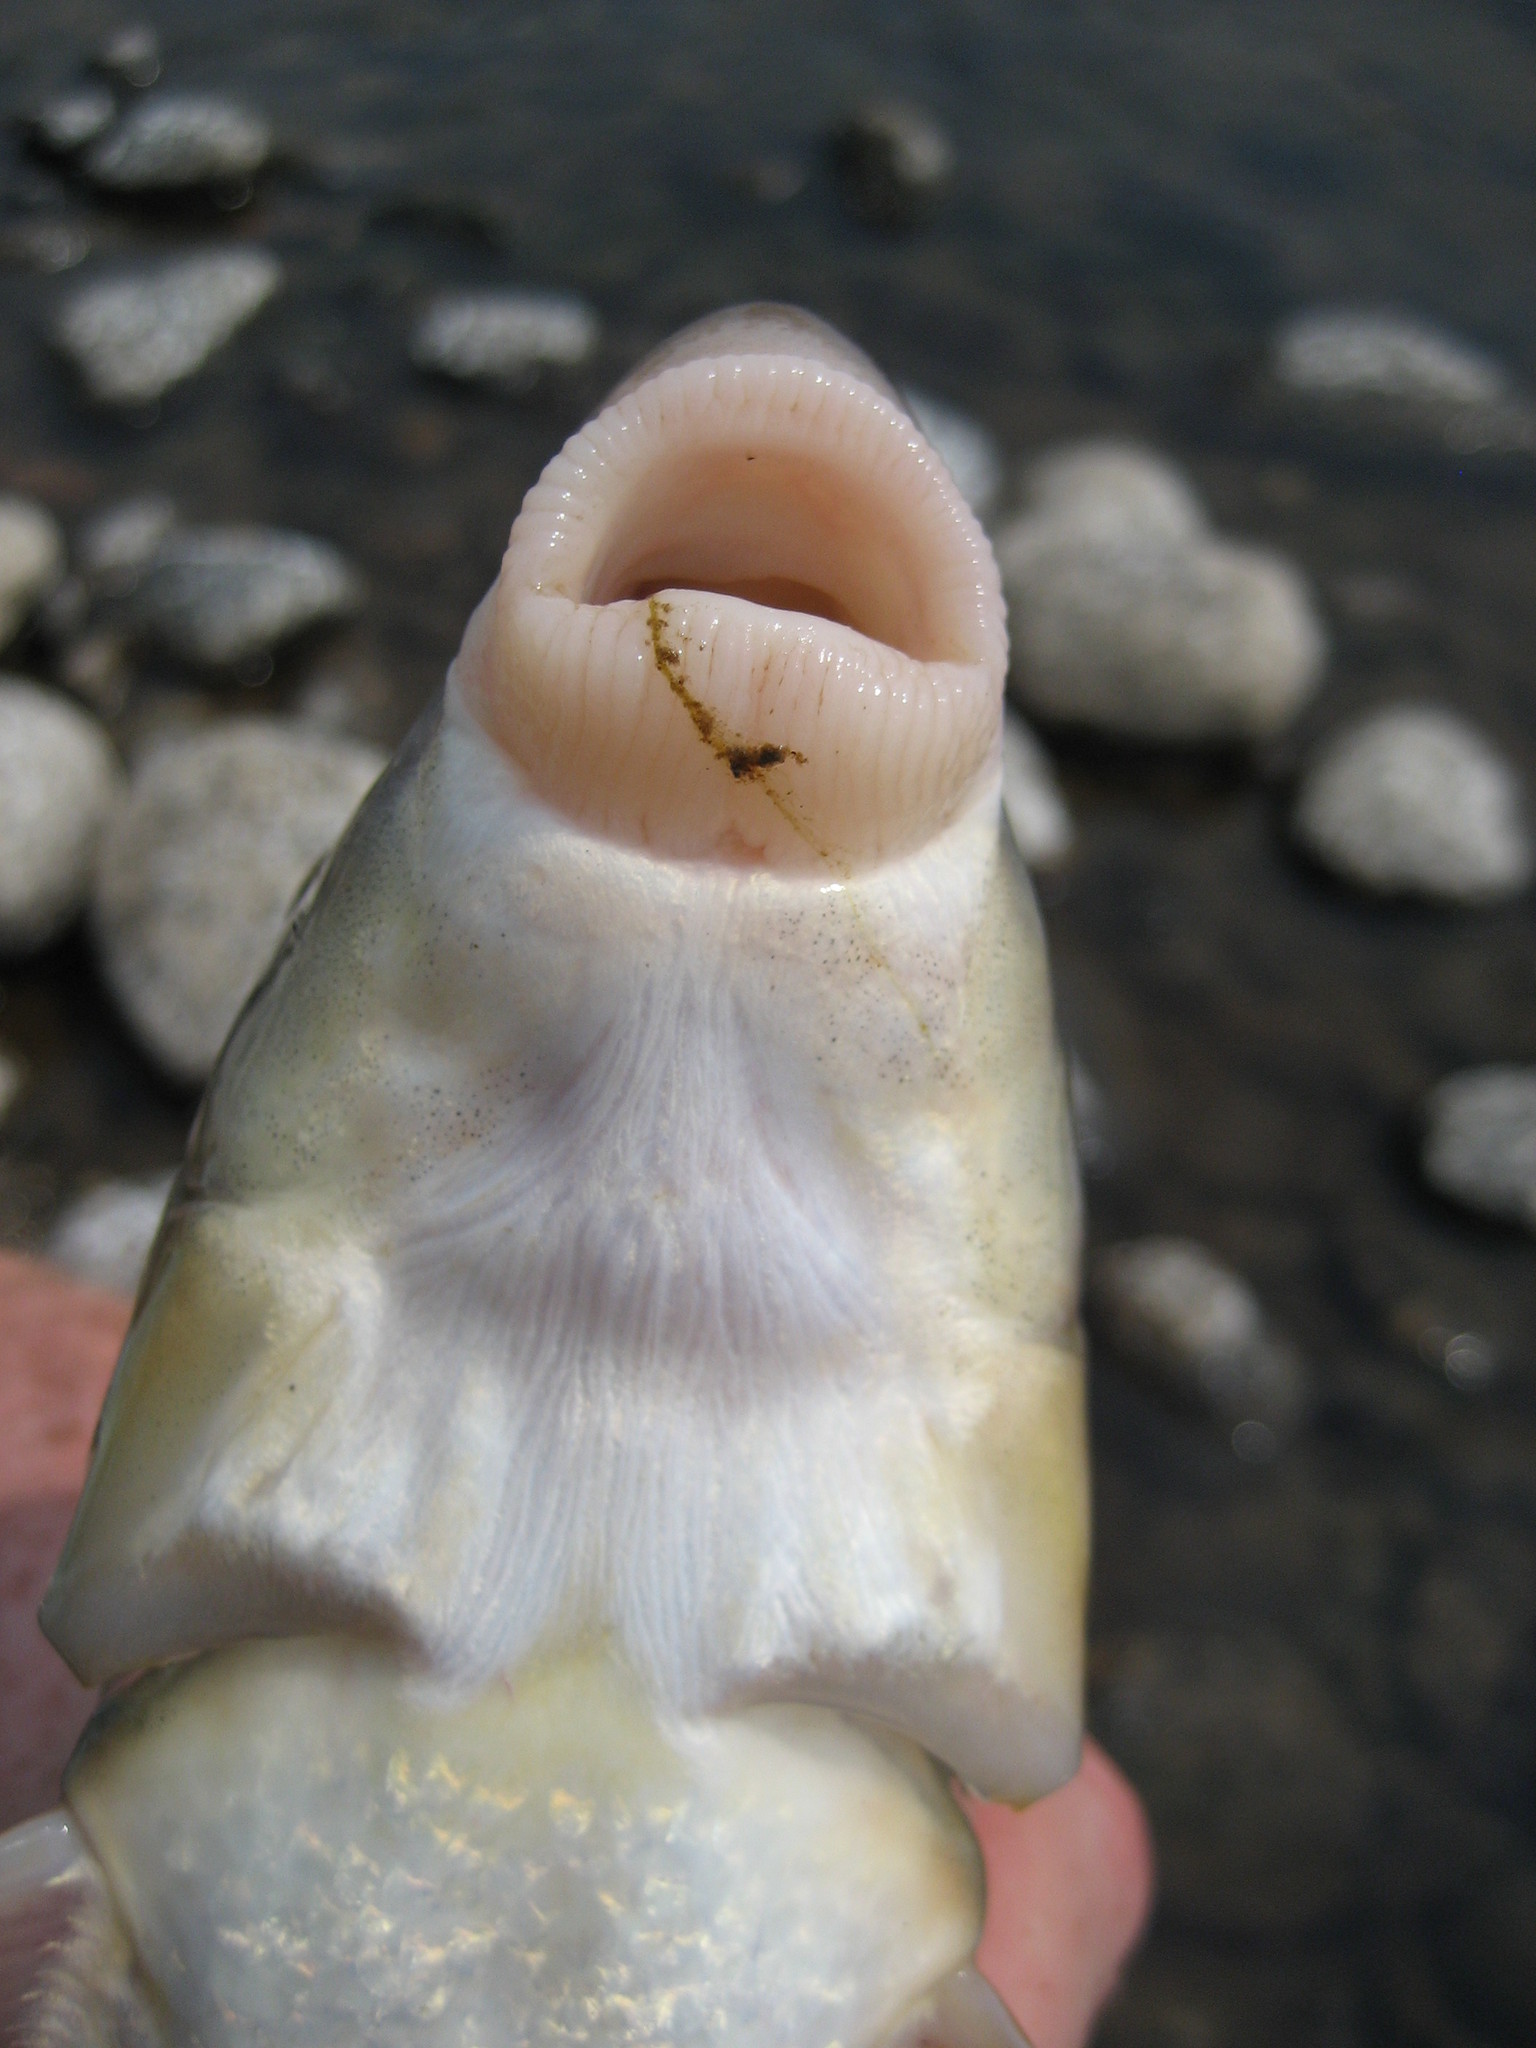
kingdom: Animalia
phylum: Chordata
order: Cypriniformes
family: Catostomidae
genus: Moxostoma
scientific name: Moxostoma macrolepidotum
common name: Shorthead redhorse
